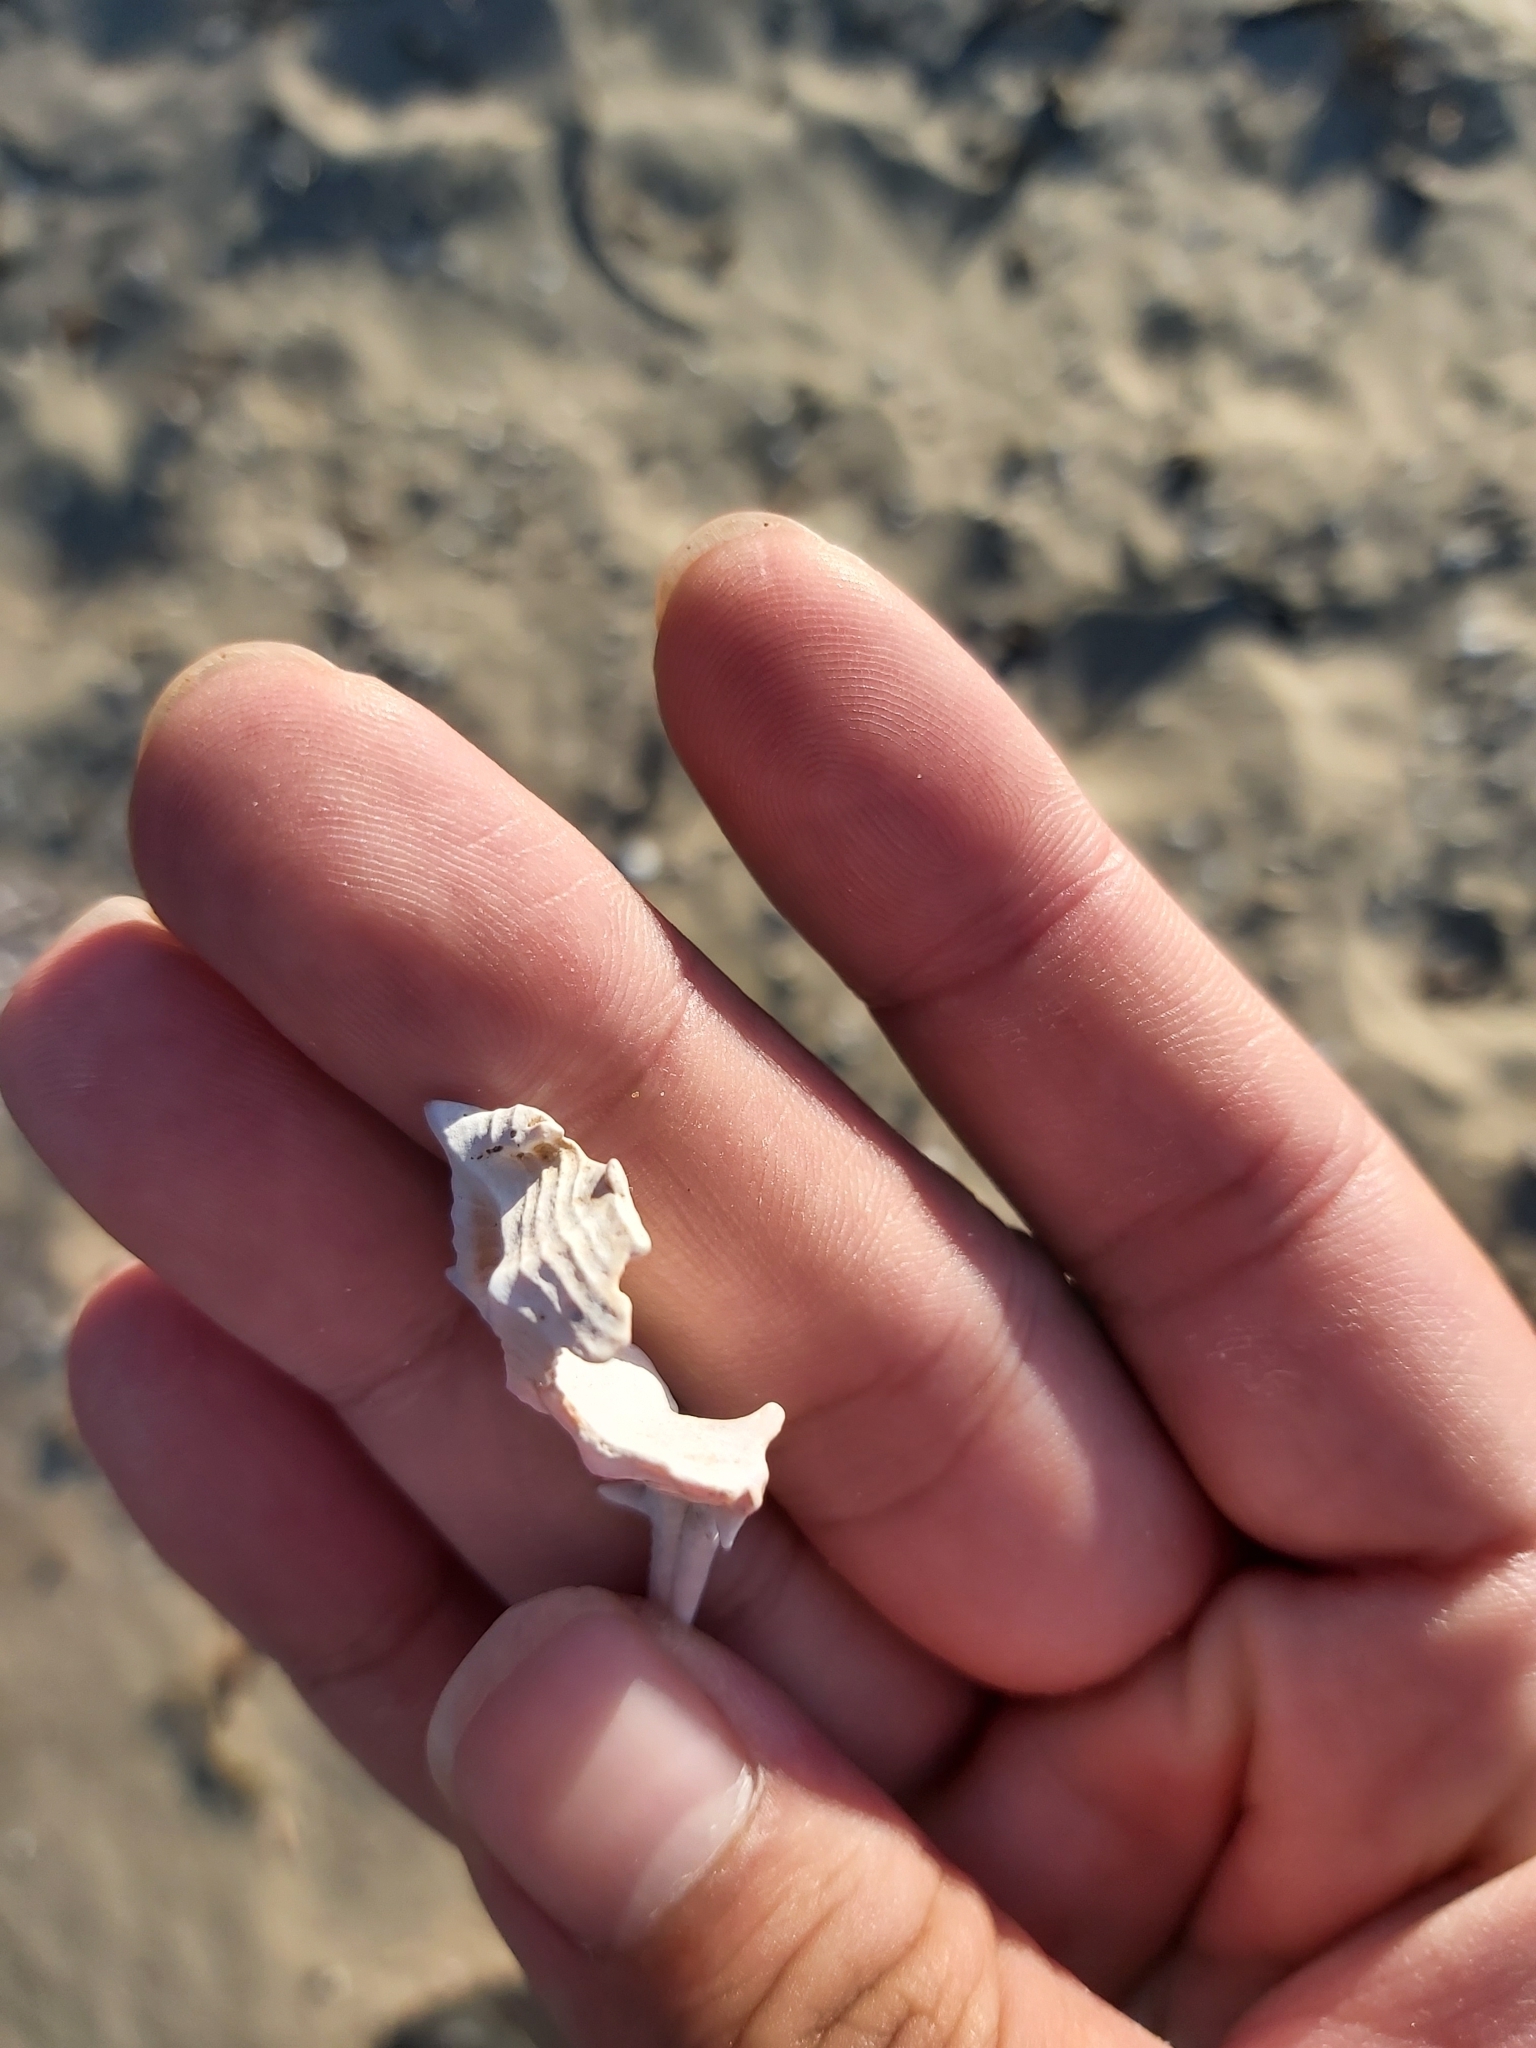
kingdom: Animalia
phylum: Mollusca
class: Gastropoda
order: Neogastropoda
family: Muricidae
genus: Murex
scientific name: Murex brevispina
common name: Brevispined murex
